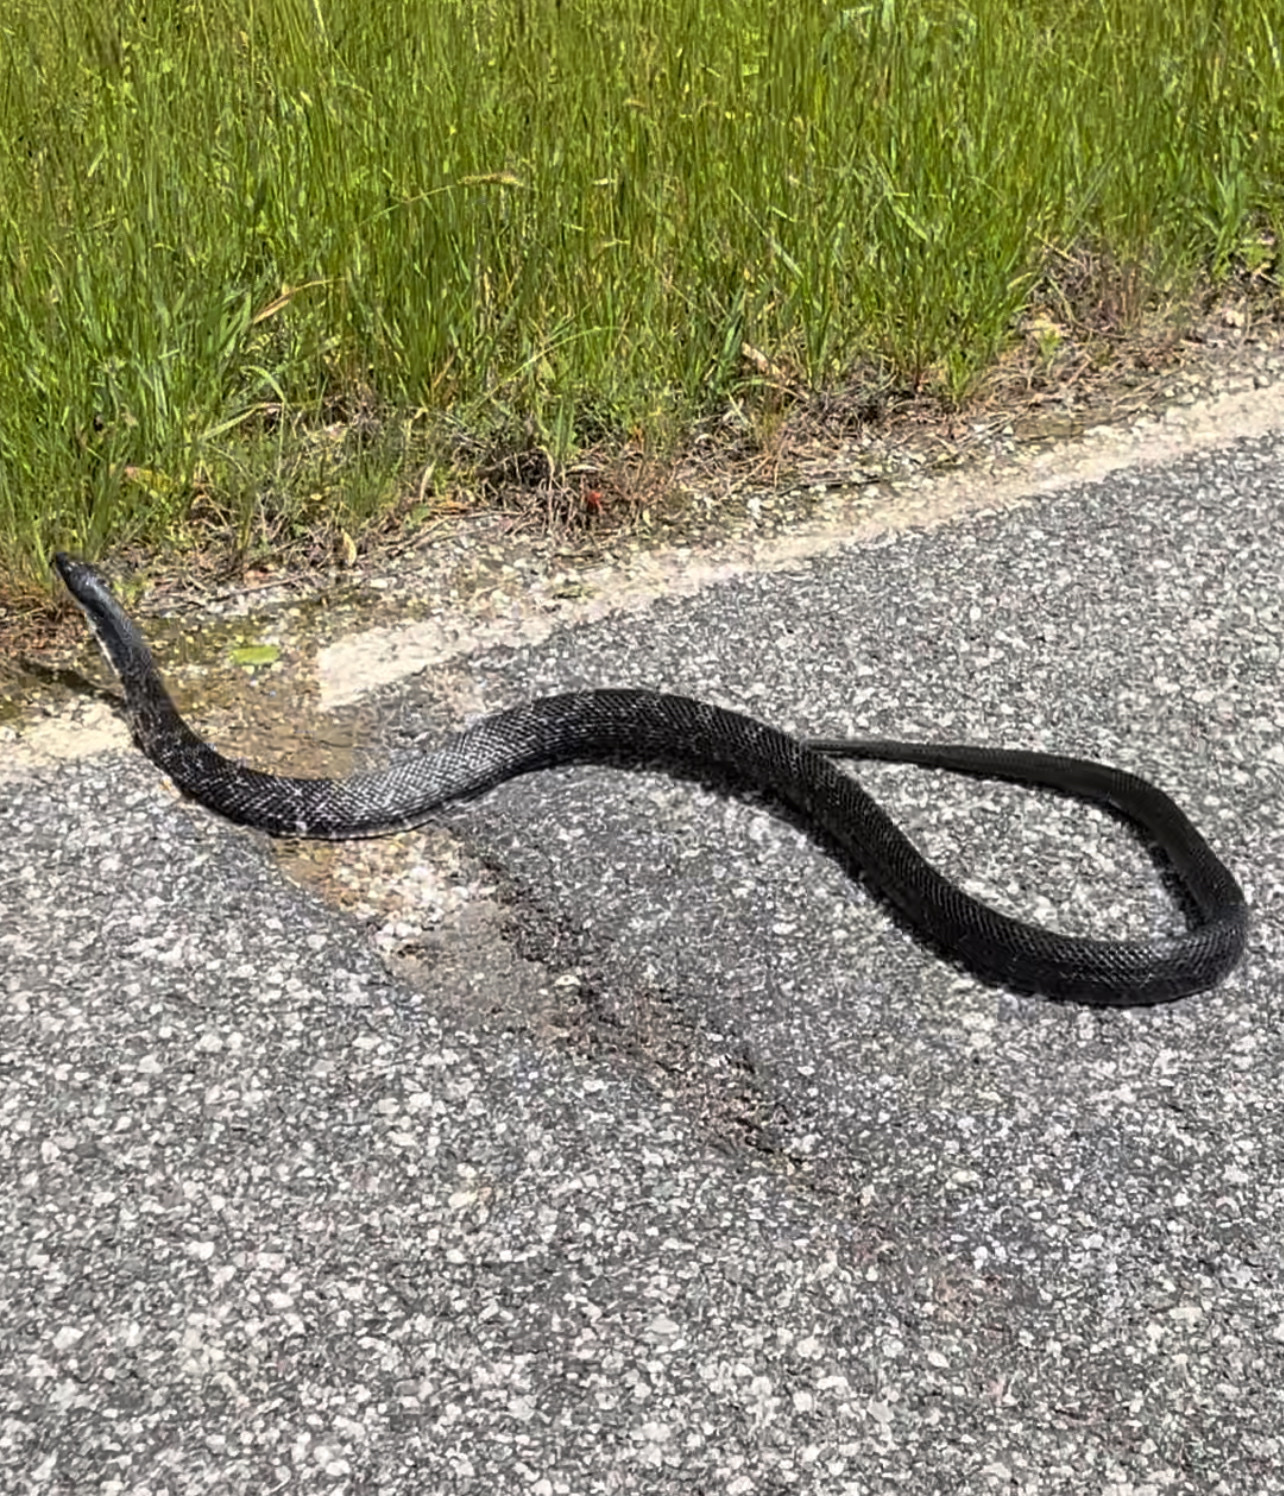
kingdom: Animalia
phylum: Chordata
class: Squamata
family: Colubridae
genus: Pantherophis
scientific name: Pantherophis
